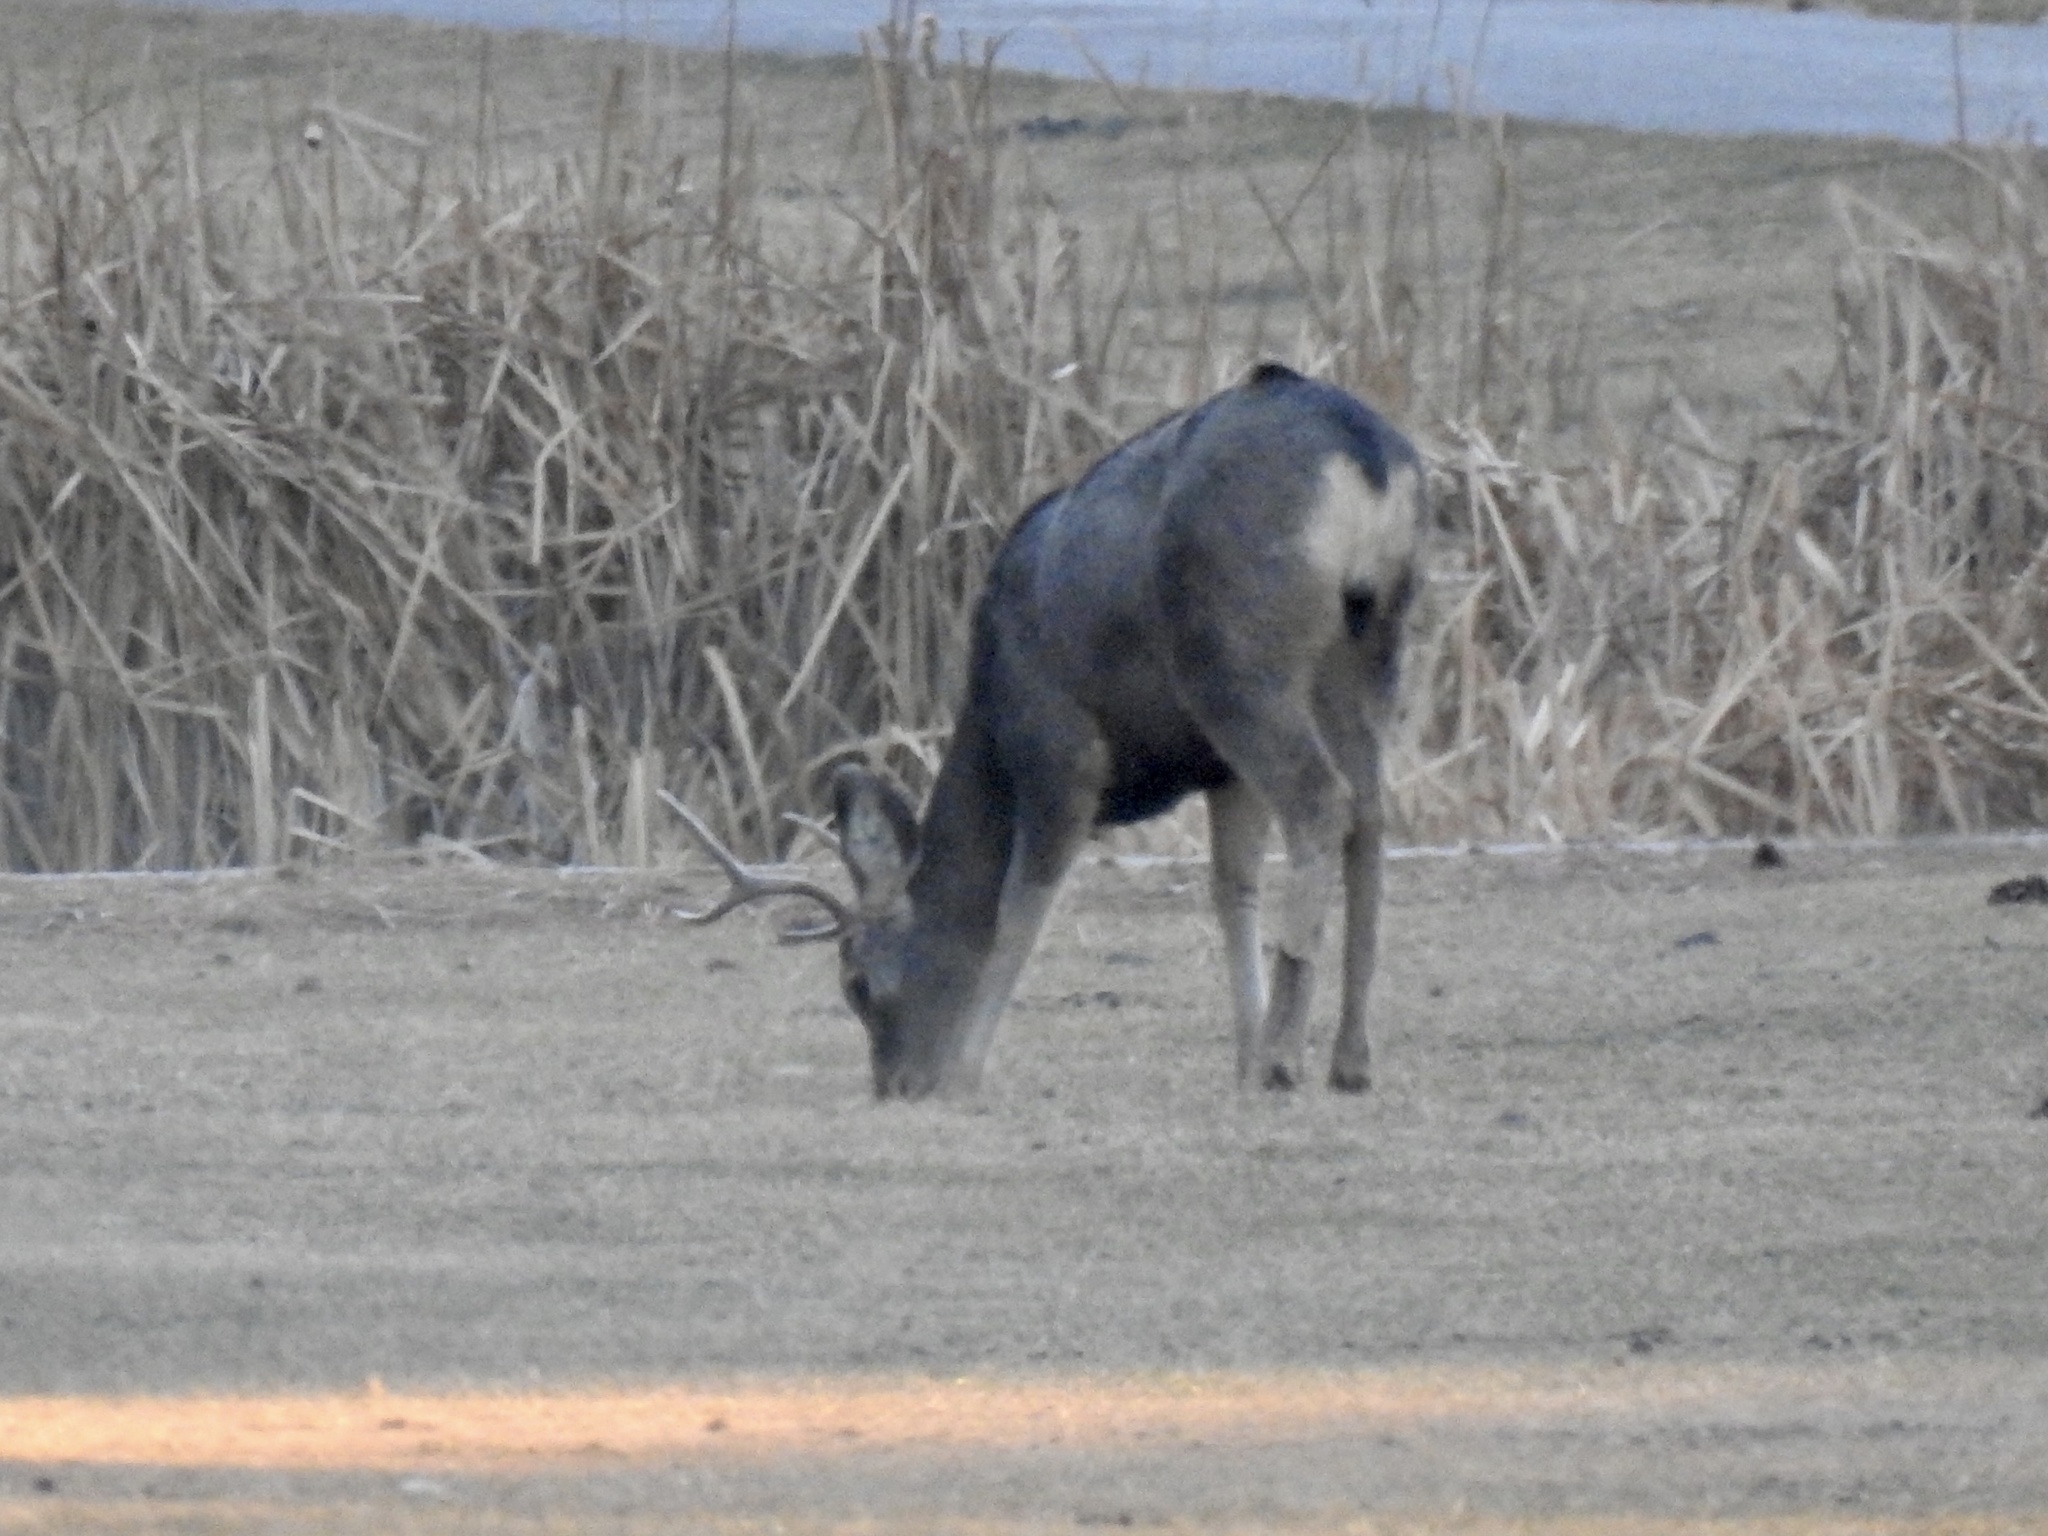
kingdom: Animalia
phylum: Chordata
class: Mammalia
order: Artiodactyla
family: Cervidae
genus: Odocoileus
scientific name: Odocoileus hemionus
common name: Mule deer
